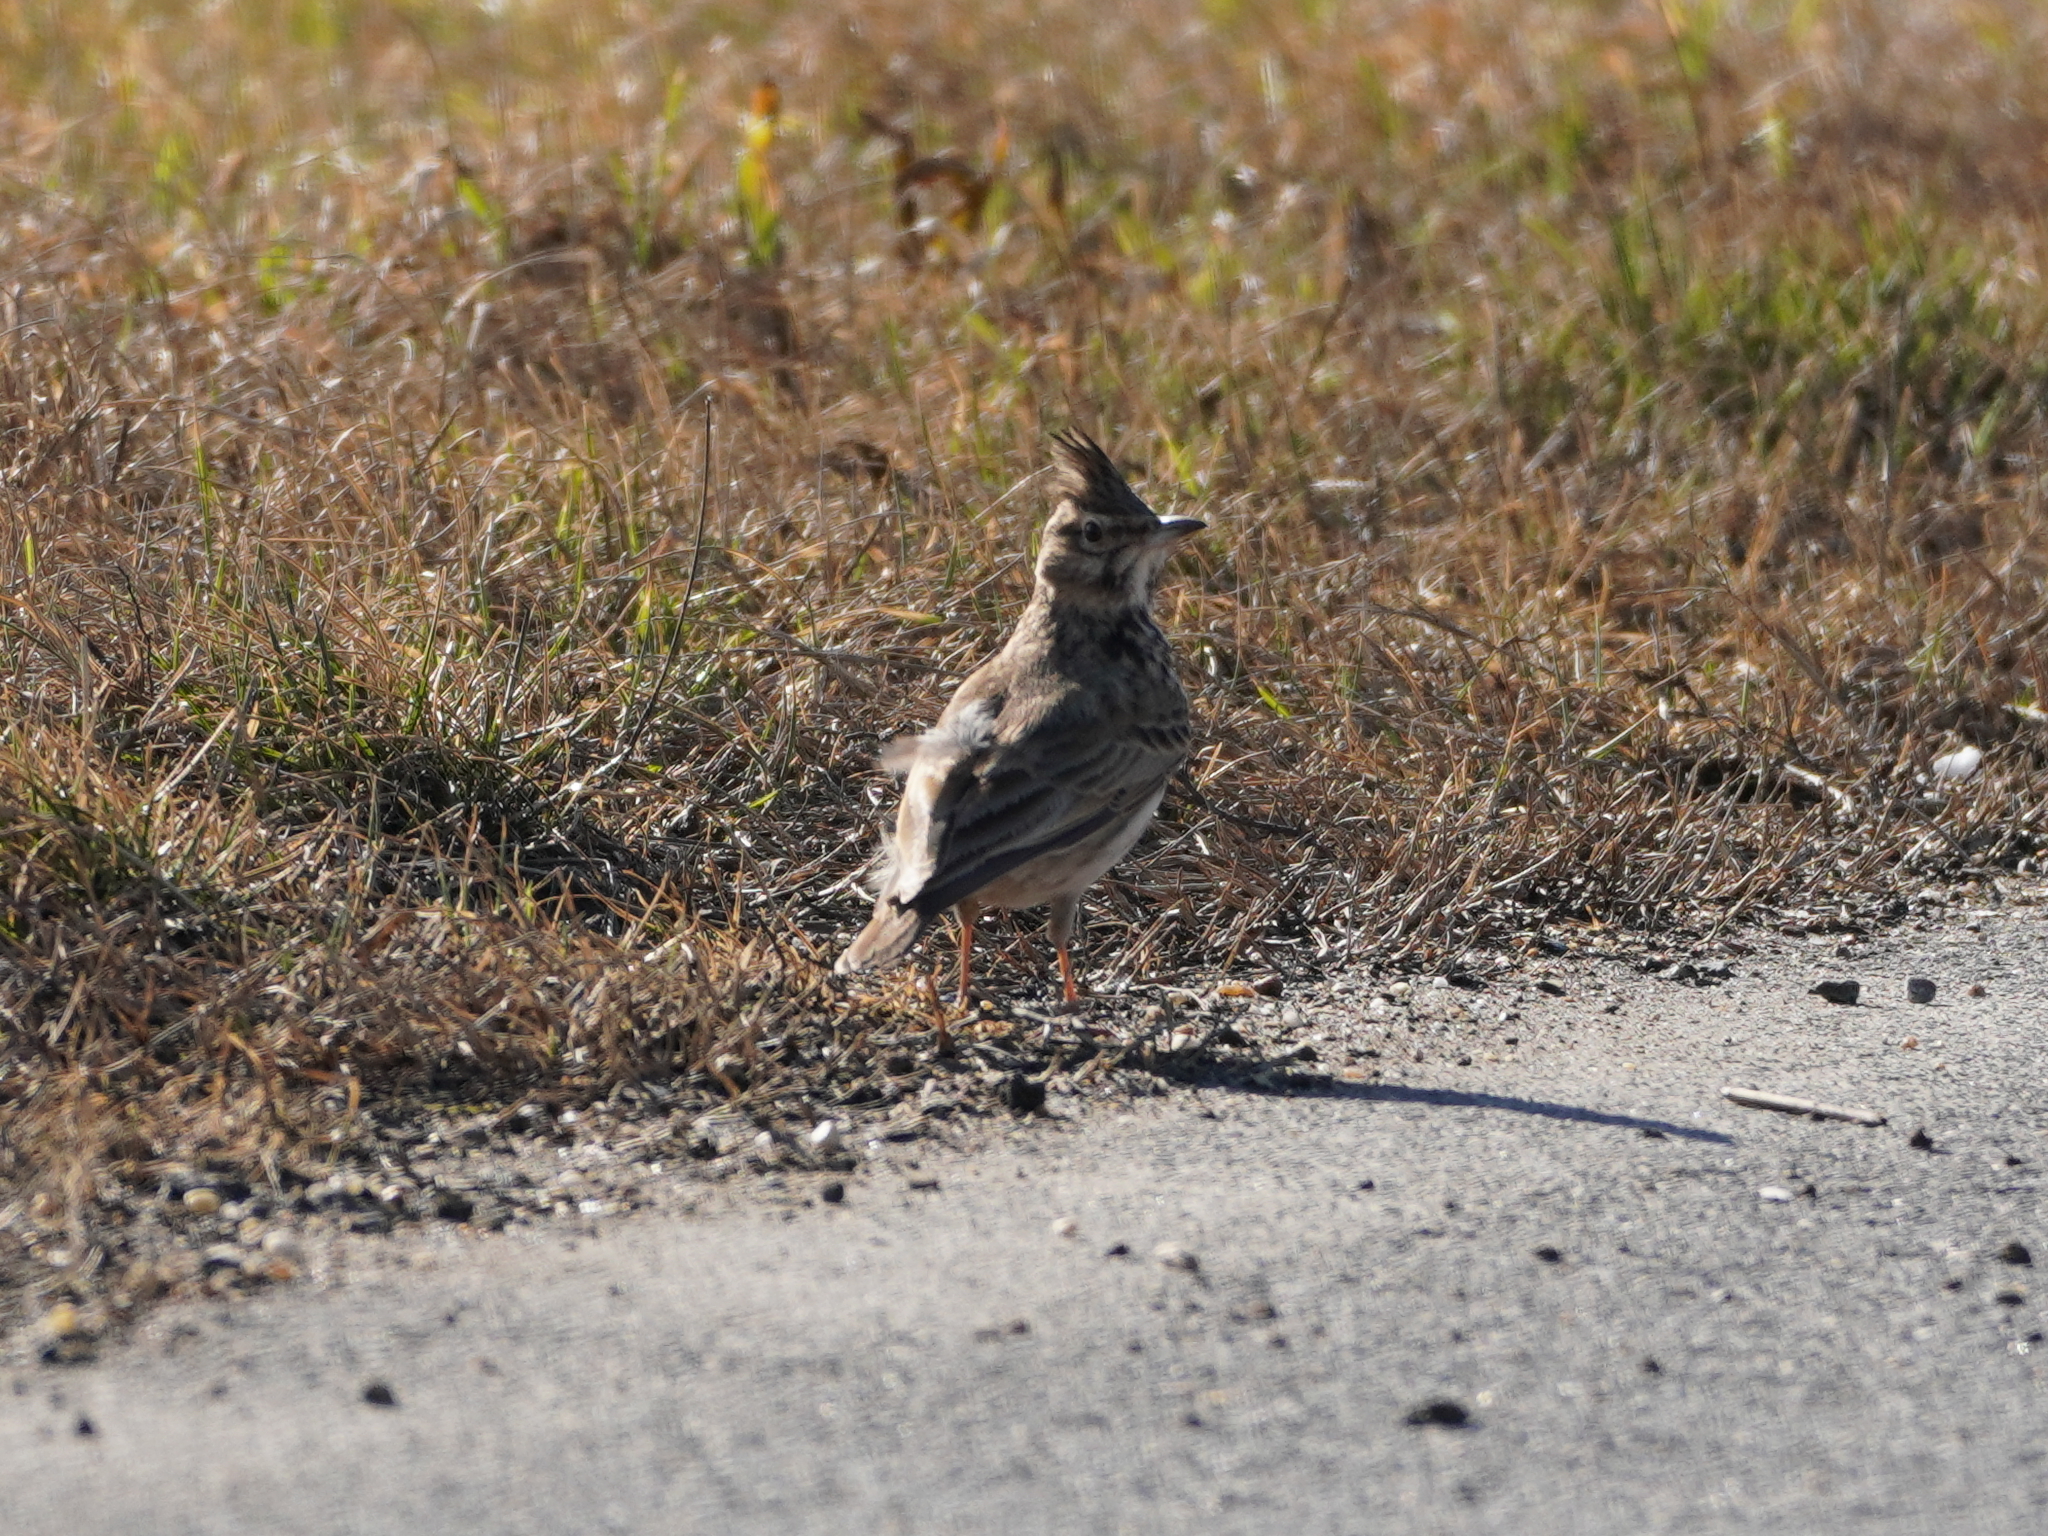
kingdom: Animalia
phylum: Chordata
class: Aves
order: Passeriformes
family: Alaudidae
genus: Galerida
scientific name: Galerida cristata
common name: Crested lark
